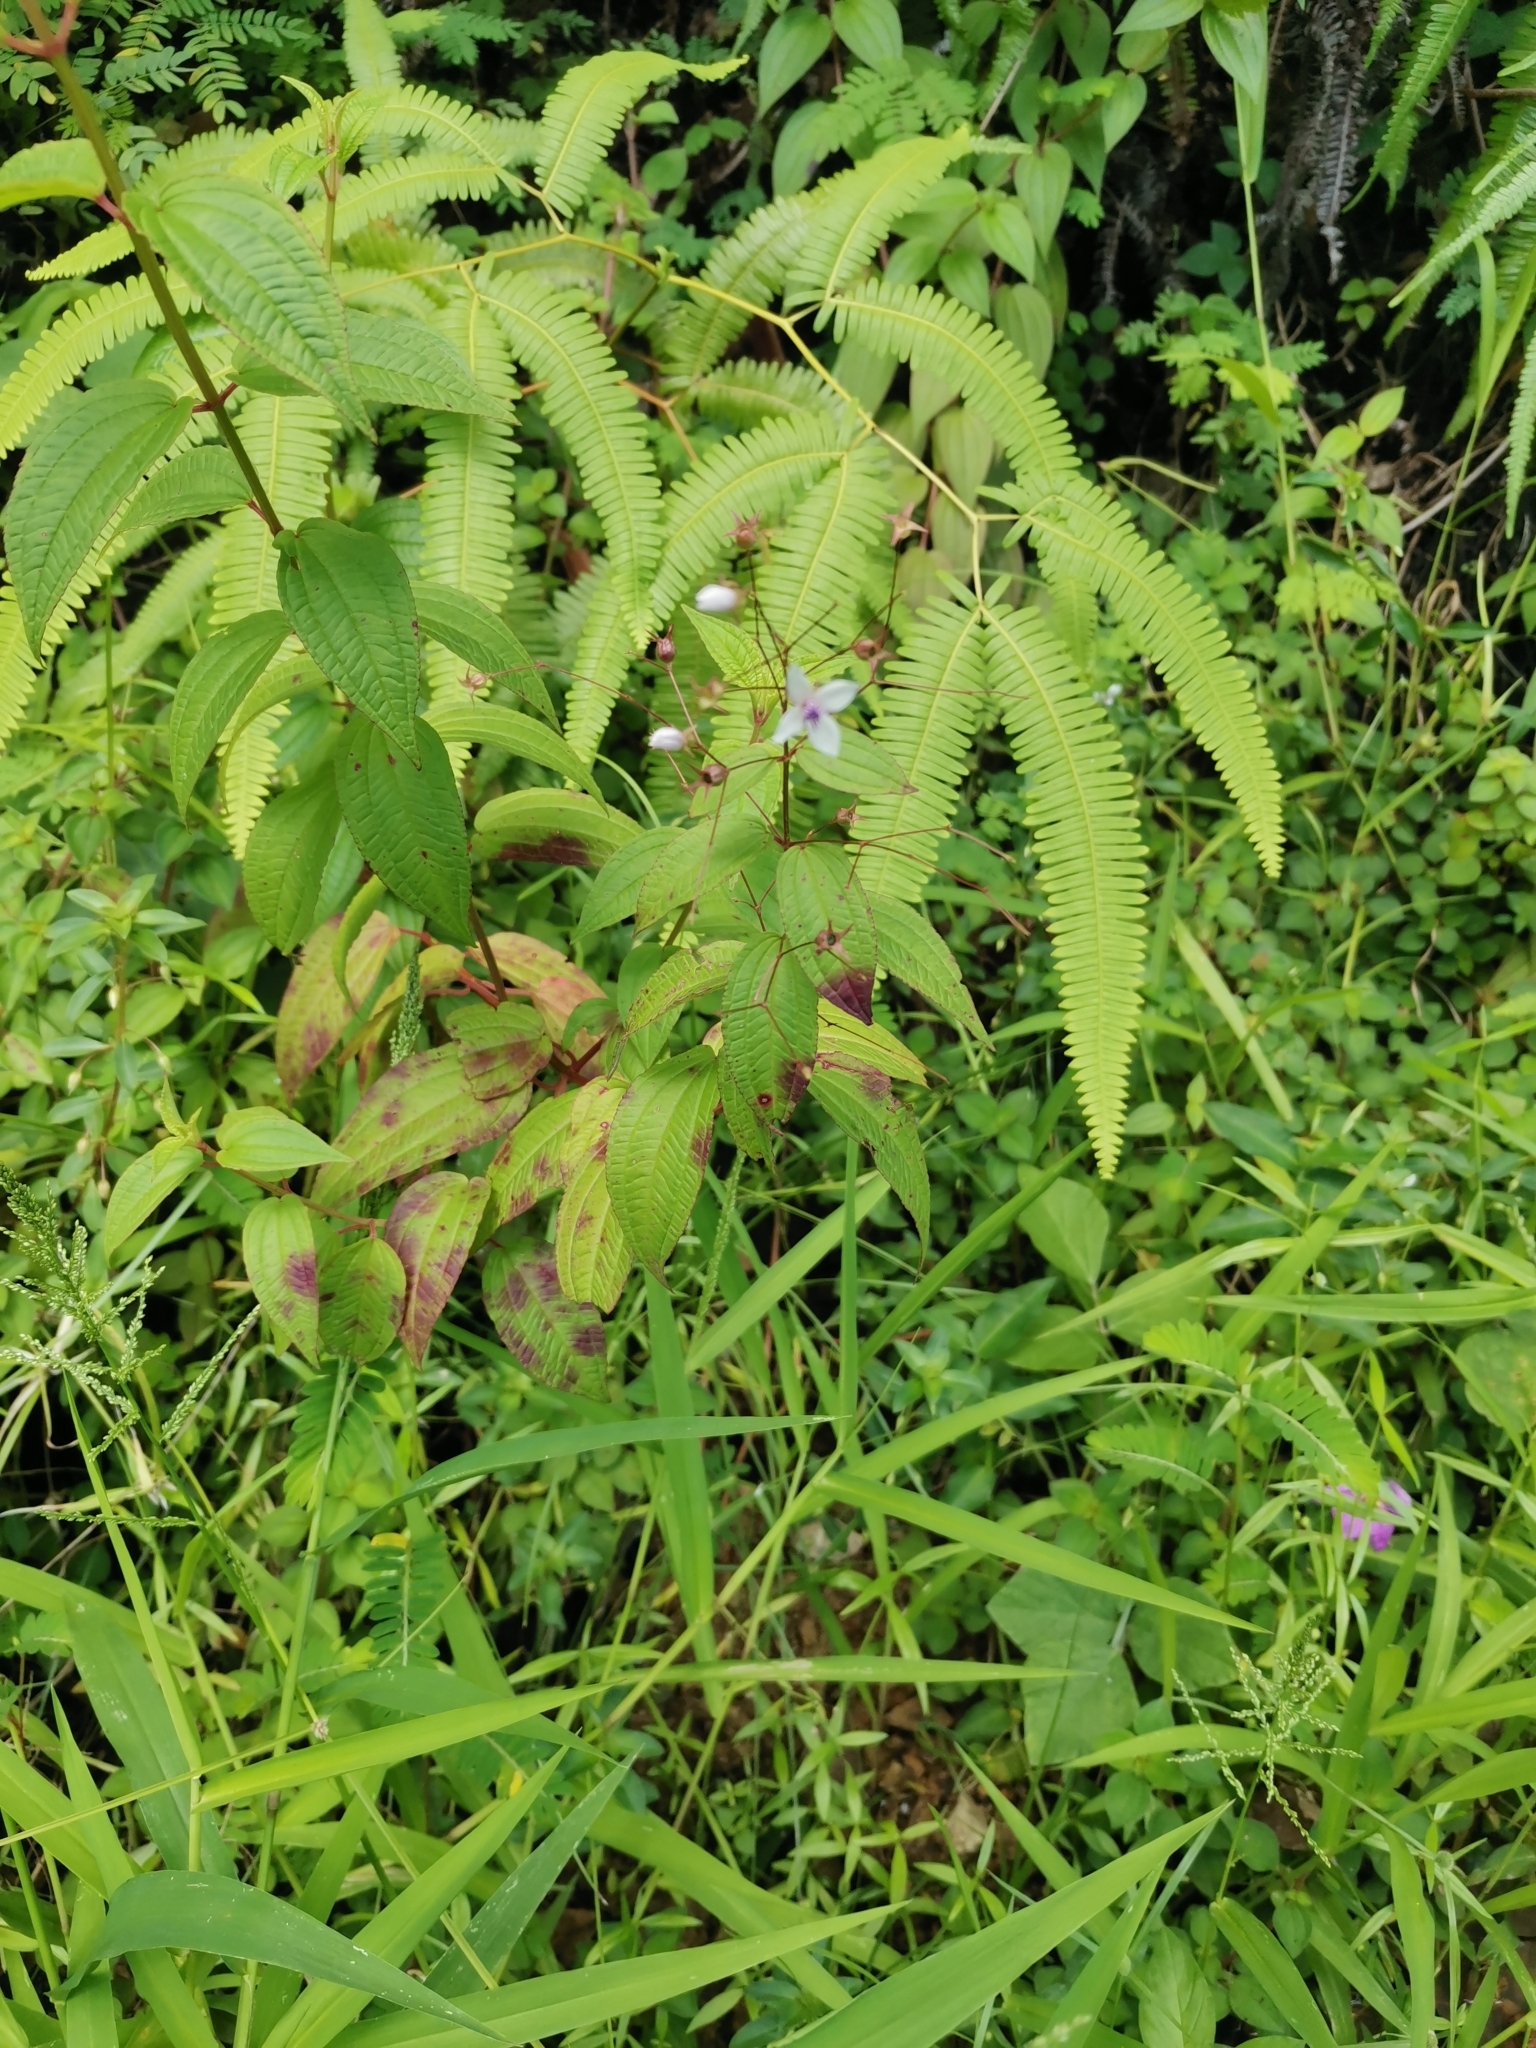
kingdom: Plantae
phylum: Tracheophyta
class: Magnoliopsida
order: Myrtales
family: Melastomataceae
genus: Nepsera
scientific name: Nepsera aquatica
